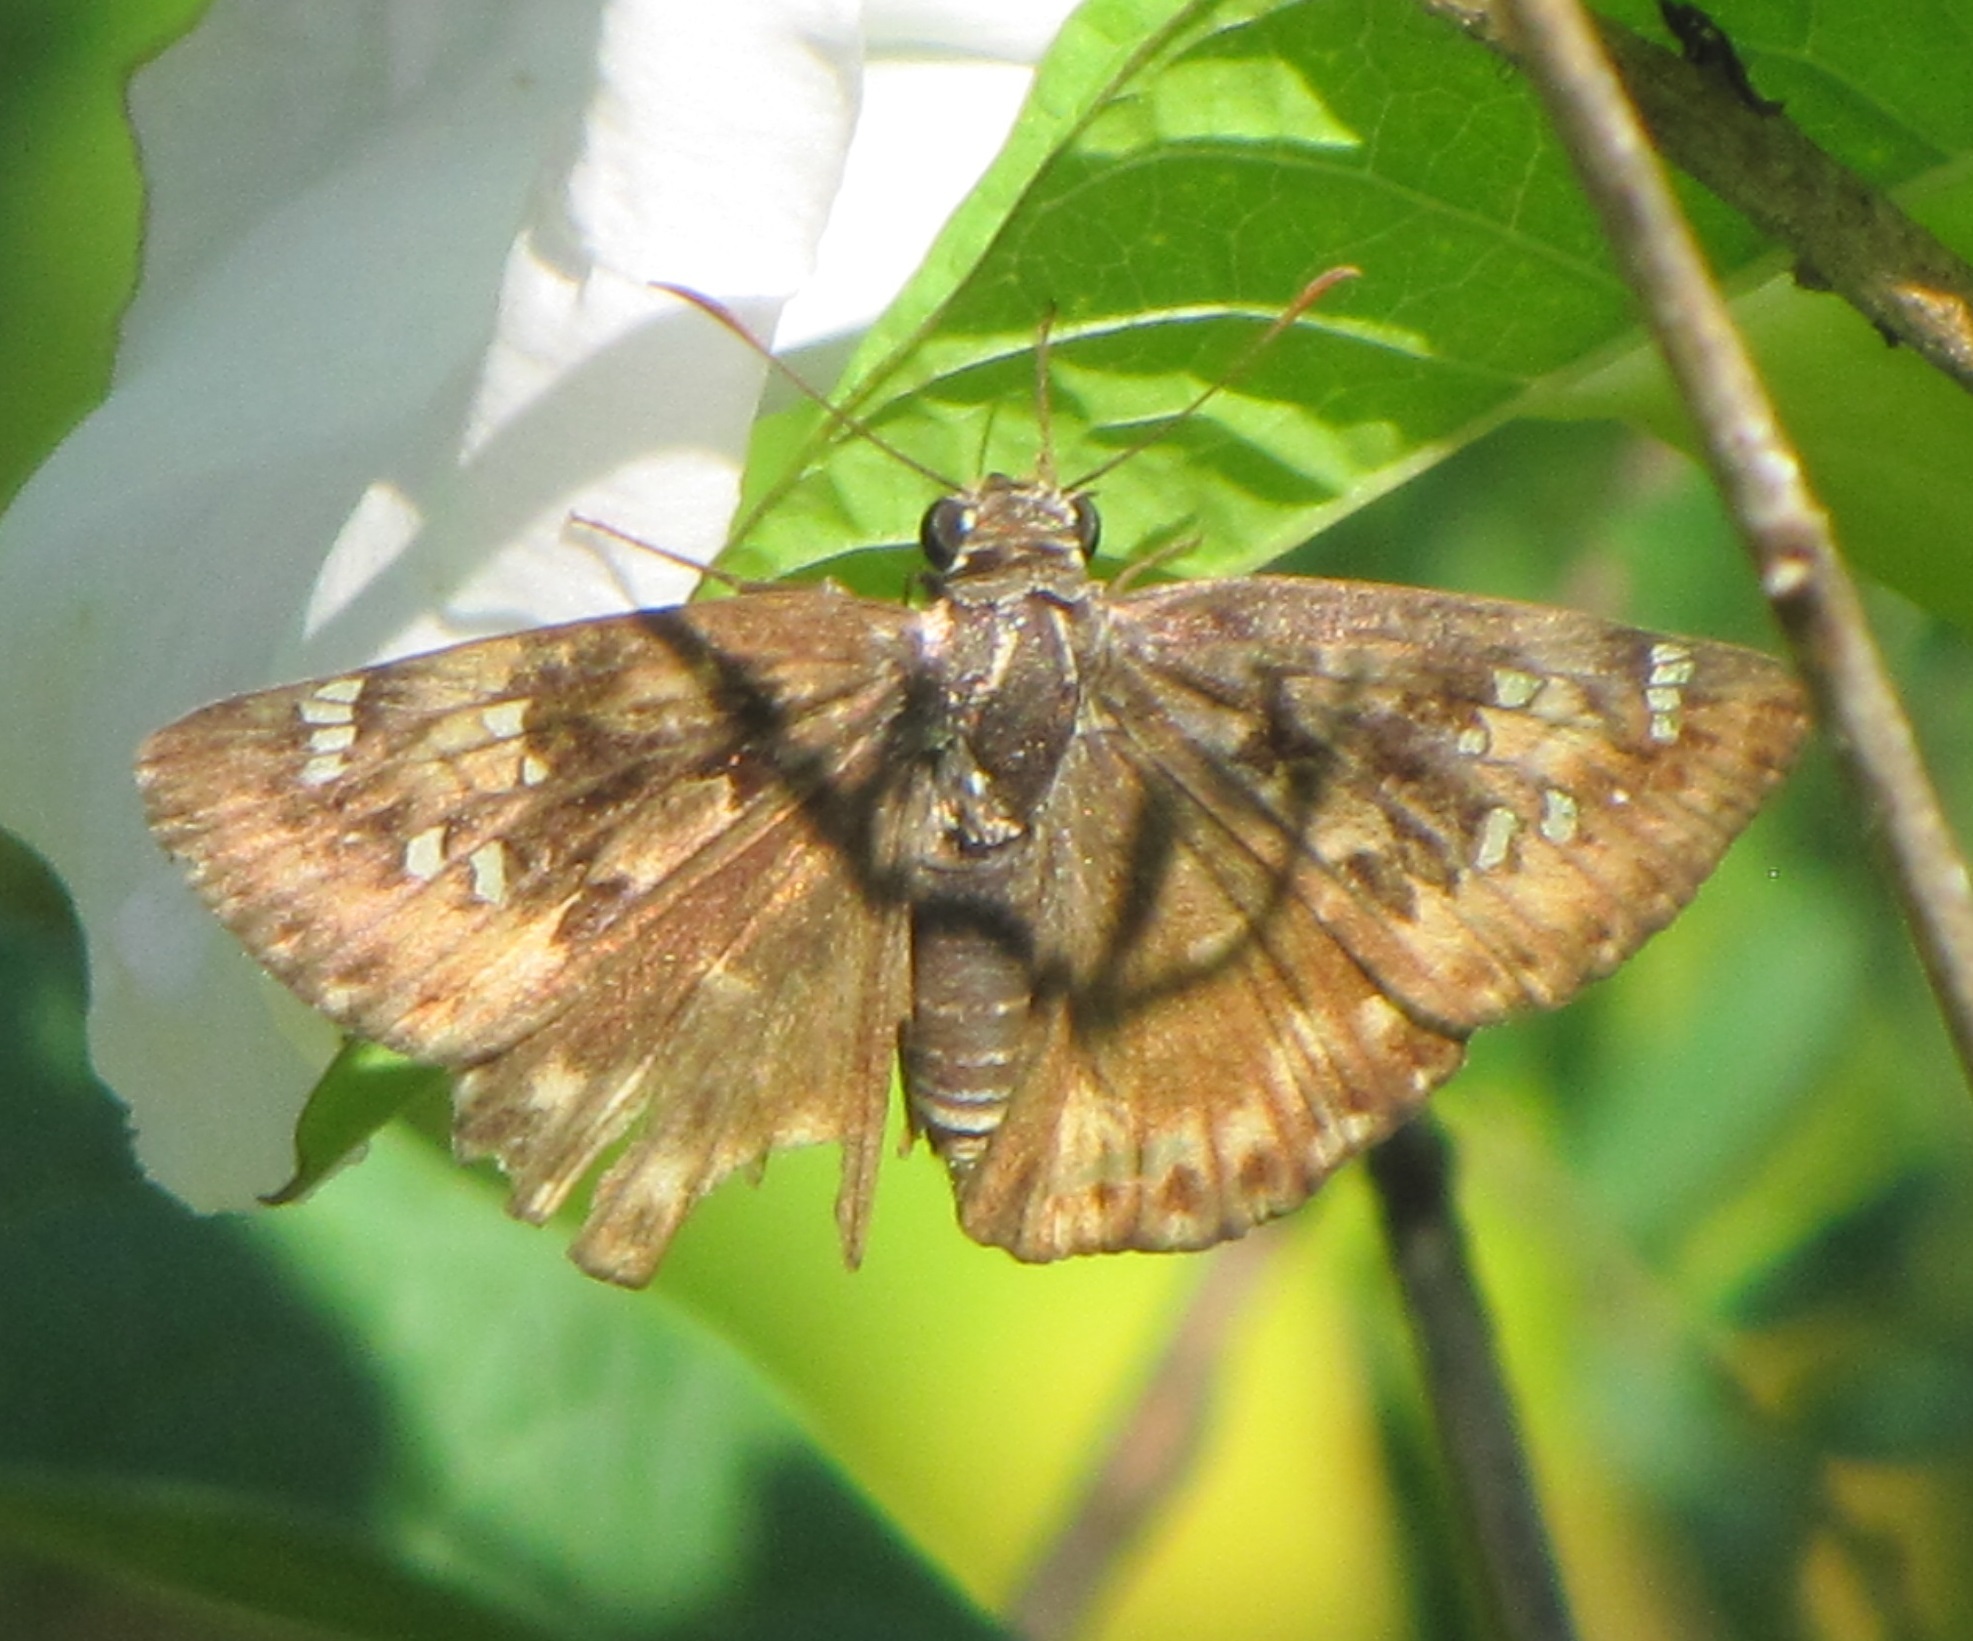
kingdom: Animalia
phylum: Arthropoda
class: Insecta
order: Lepidoptera
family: Hesperiidae
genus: Erynnis
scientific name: Erynnis horatius
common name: Horace's duskywing
